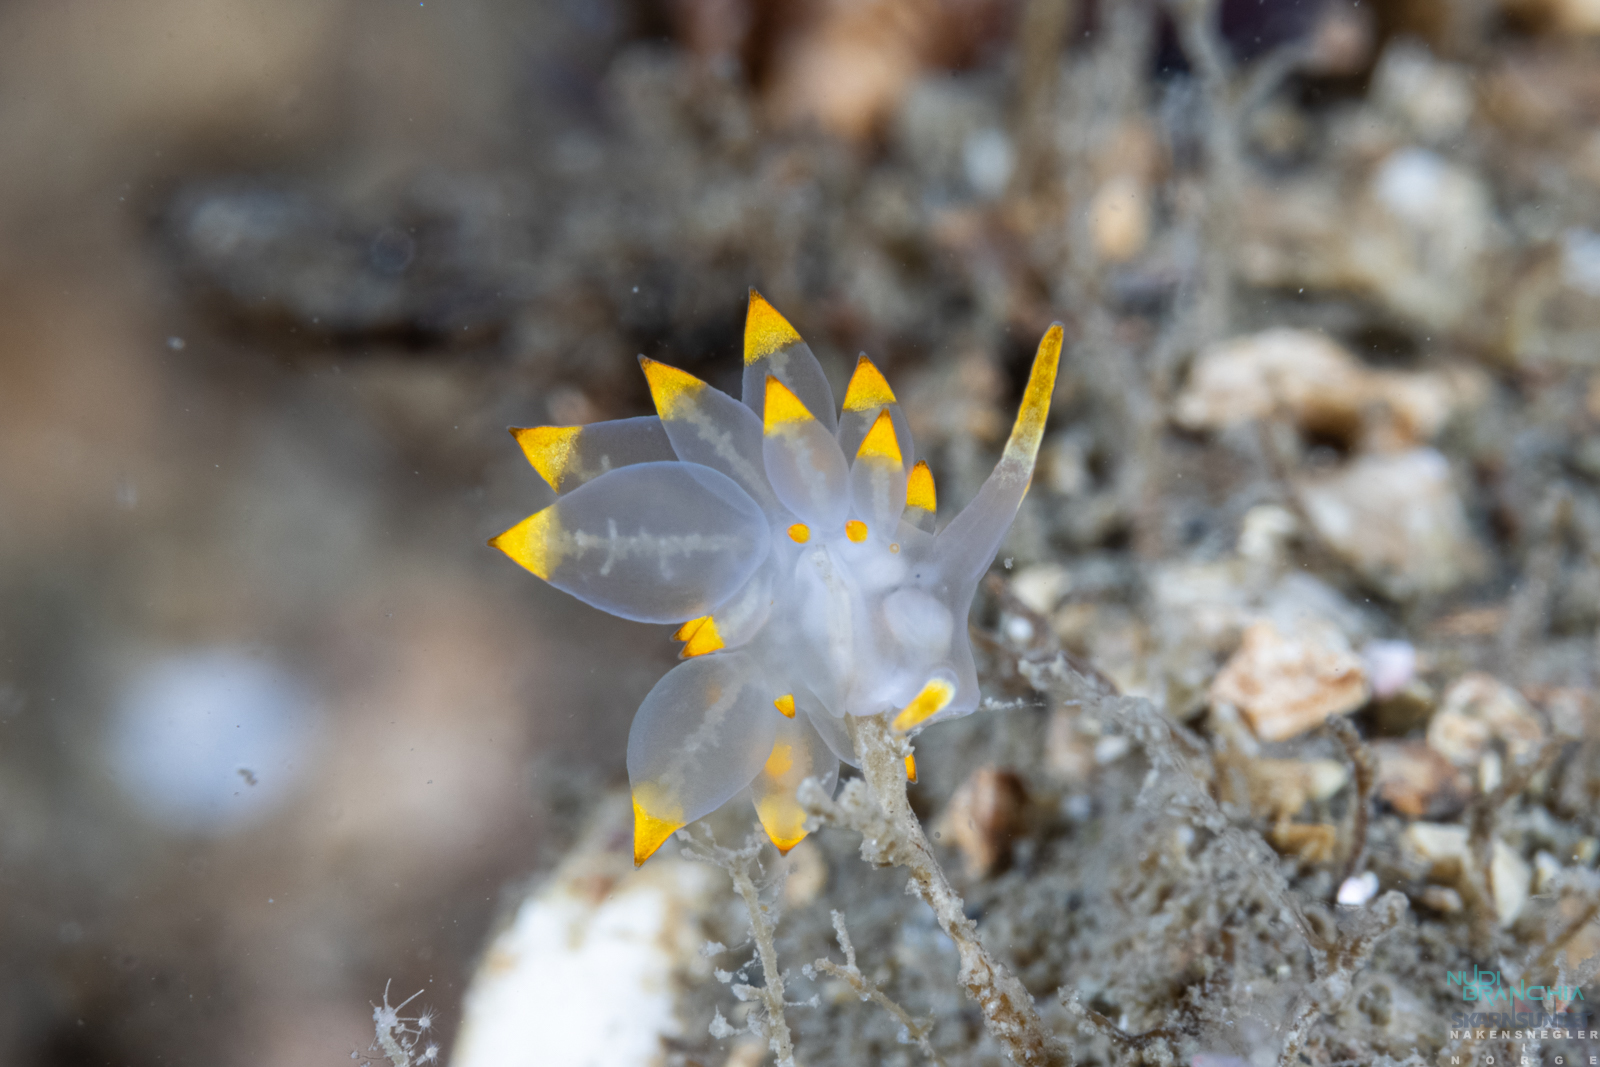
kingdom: Animalia
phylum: Mollusca
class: Gastropoda
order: Nudibranchia
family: Eubranchidae
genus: Amphorina
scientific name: Amphorina farrani
